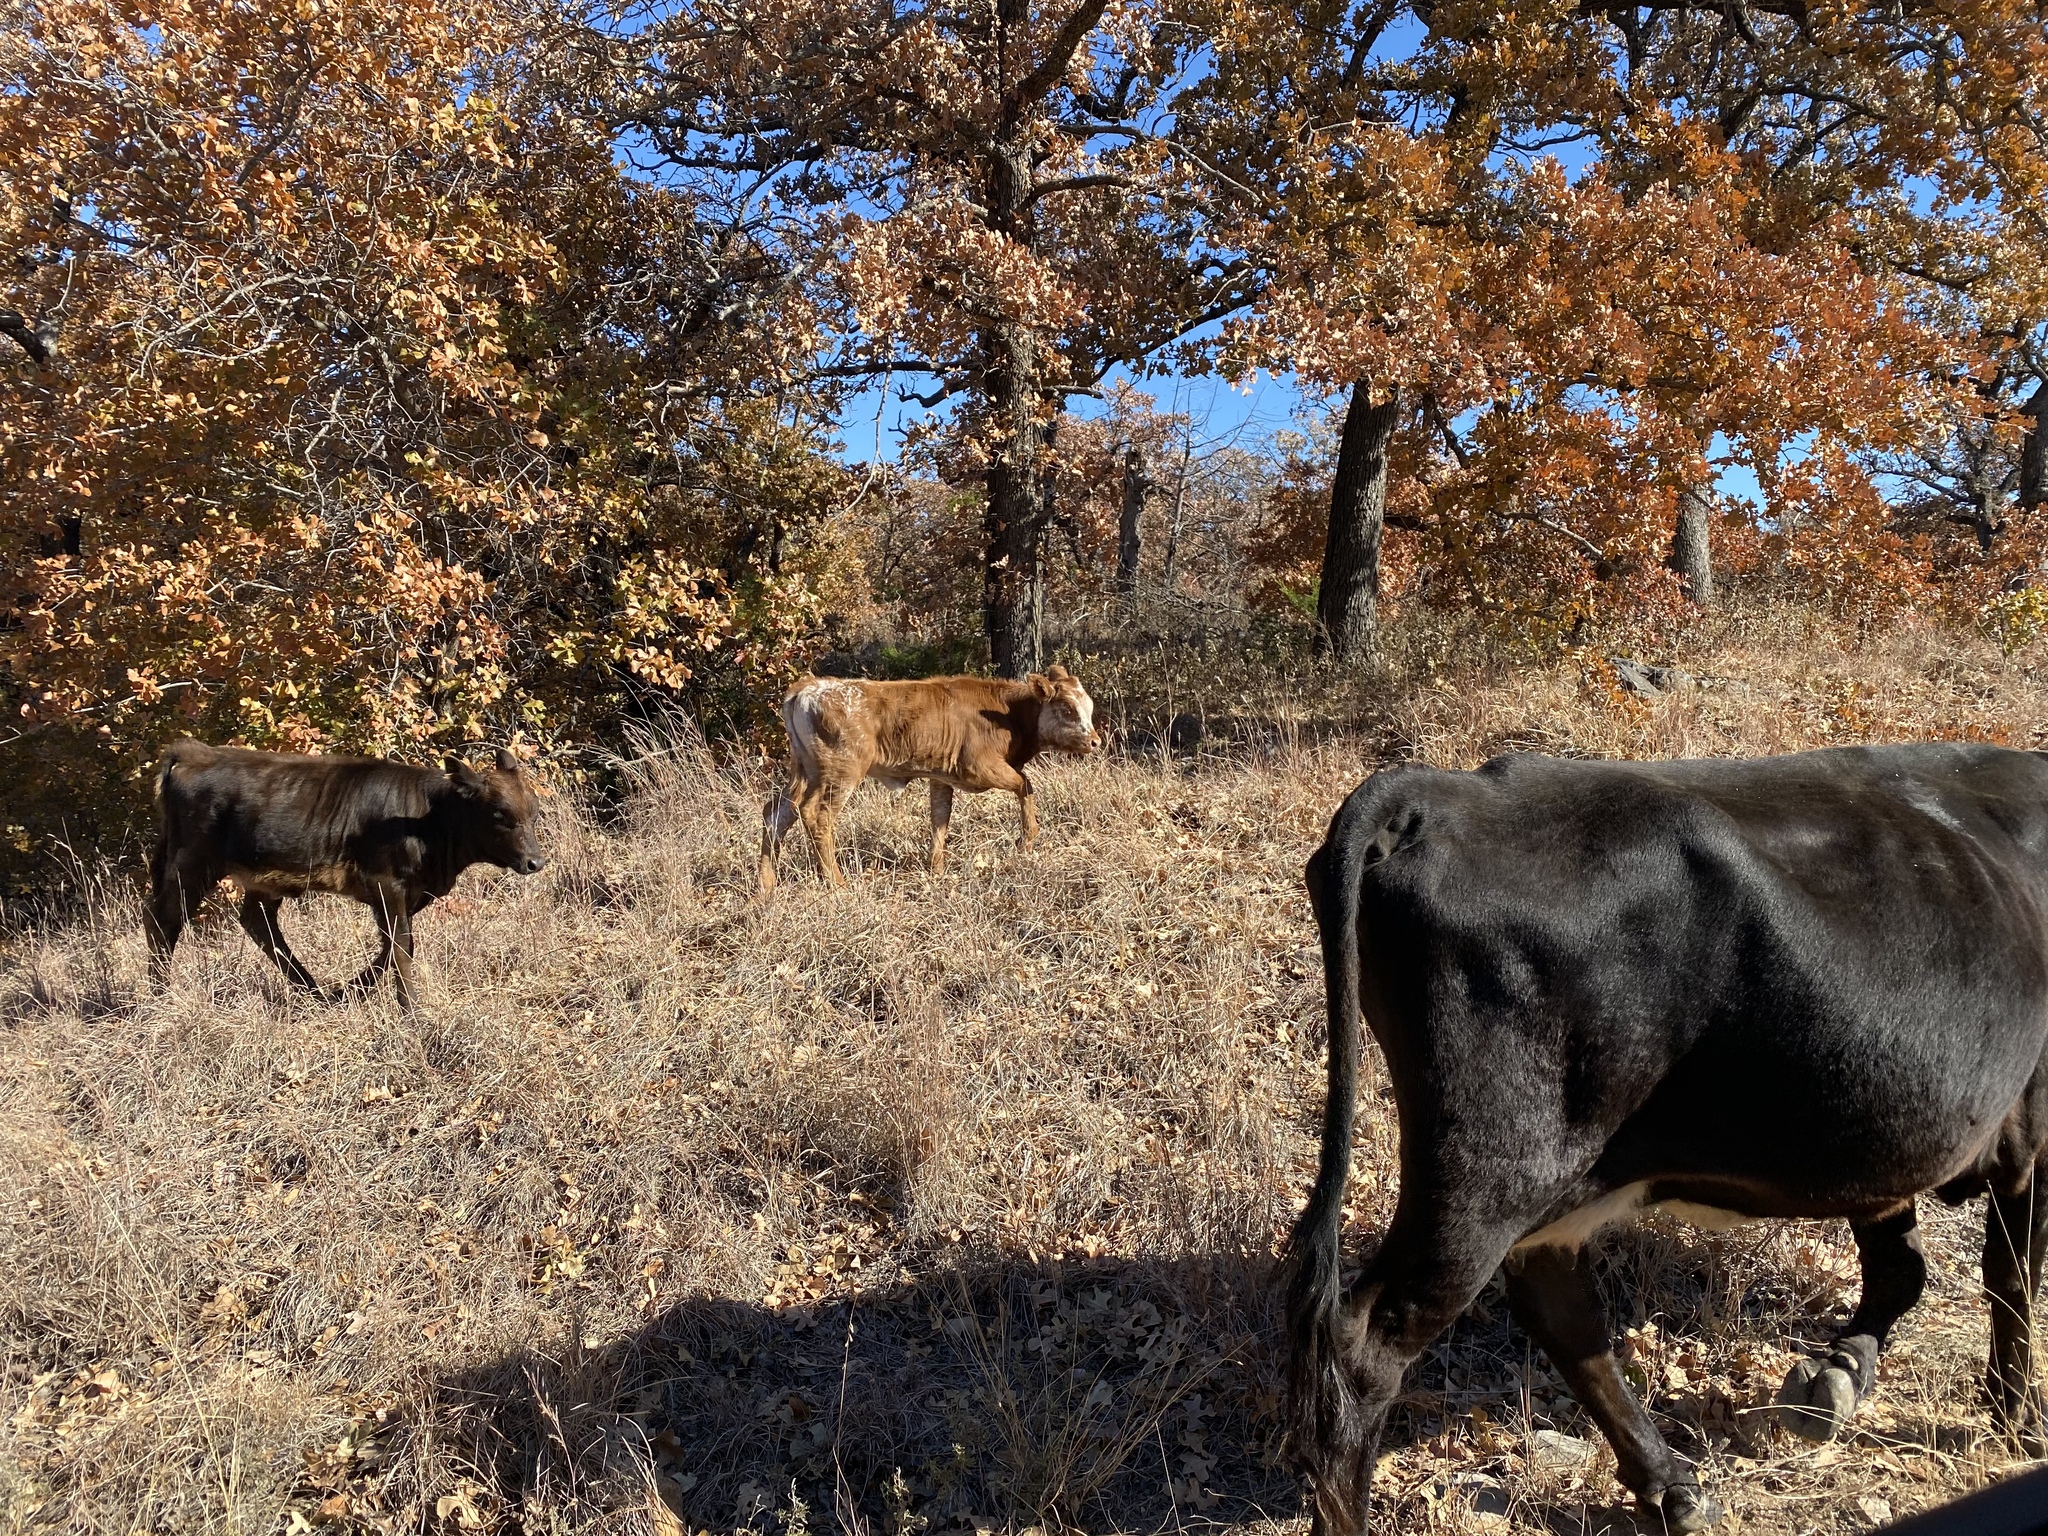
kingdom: Animalia
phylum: Chordata
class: Mammalia
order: Artiodactyla
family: Bovidae
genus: Bos
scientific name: Bos taurus
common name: Domesticated cattle
